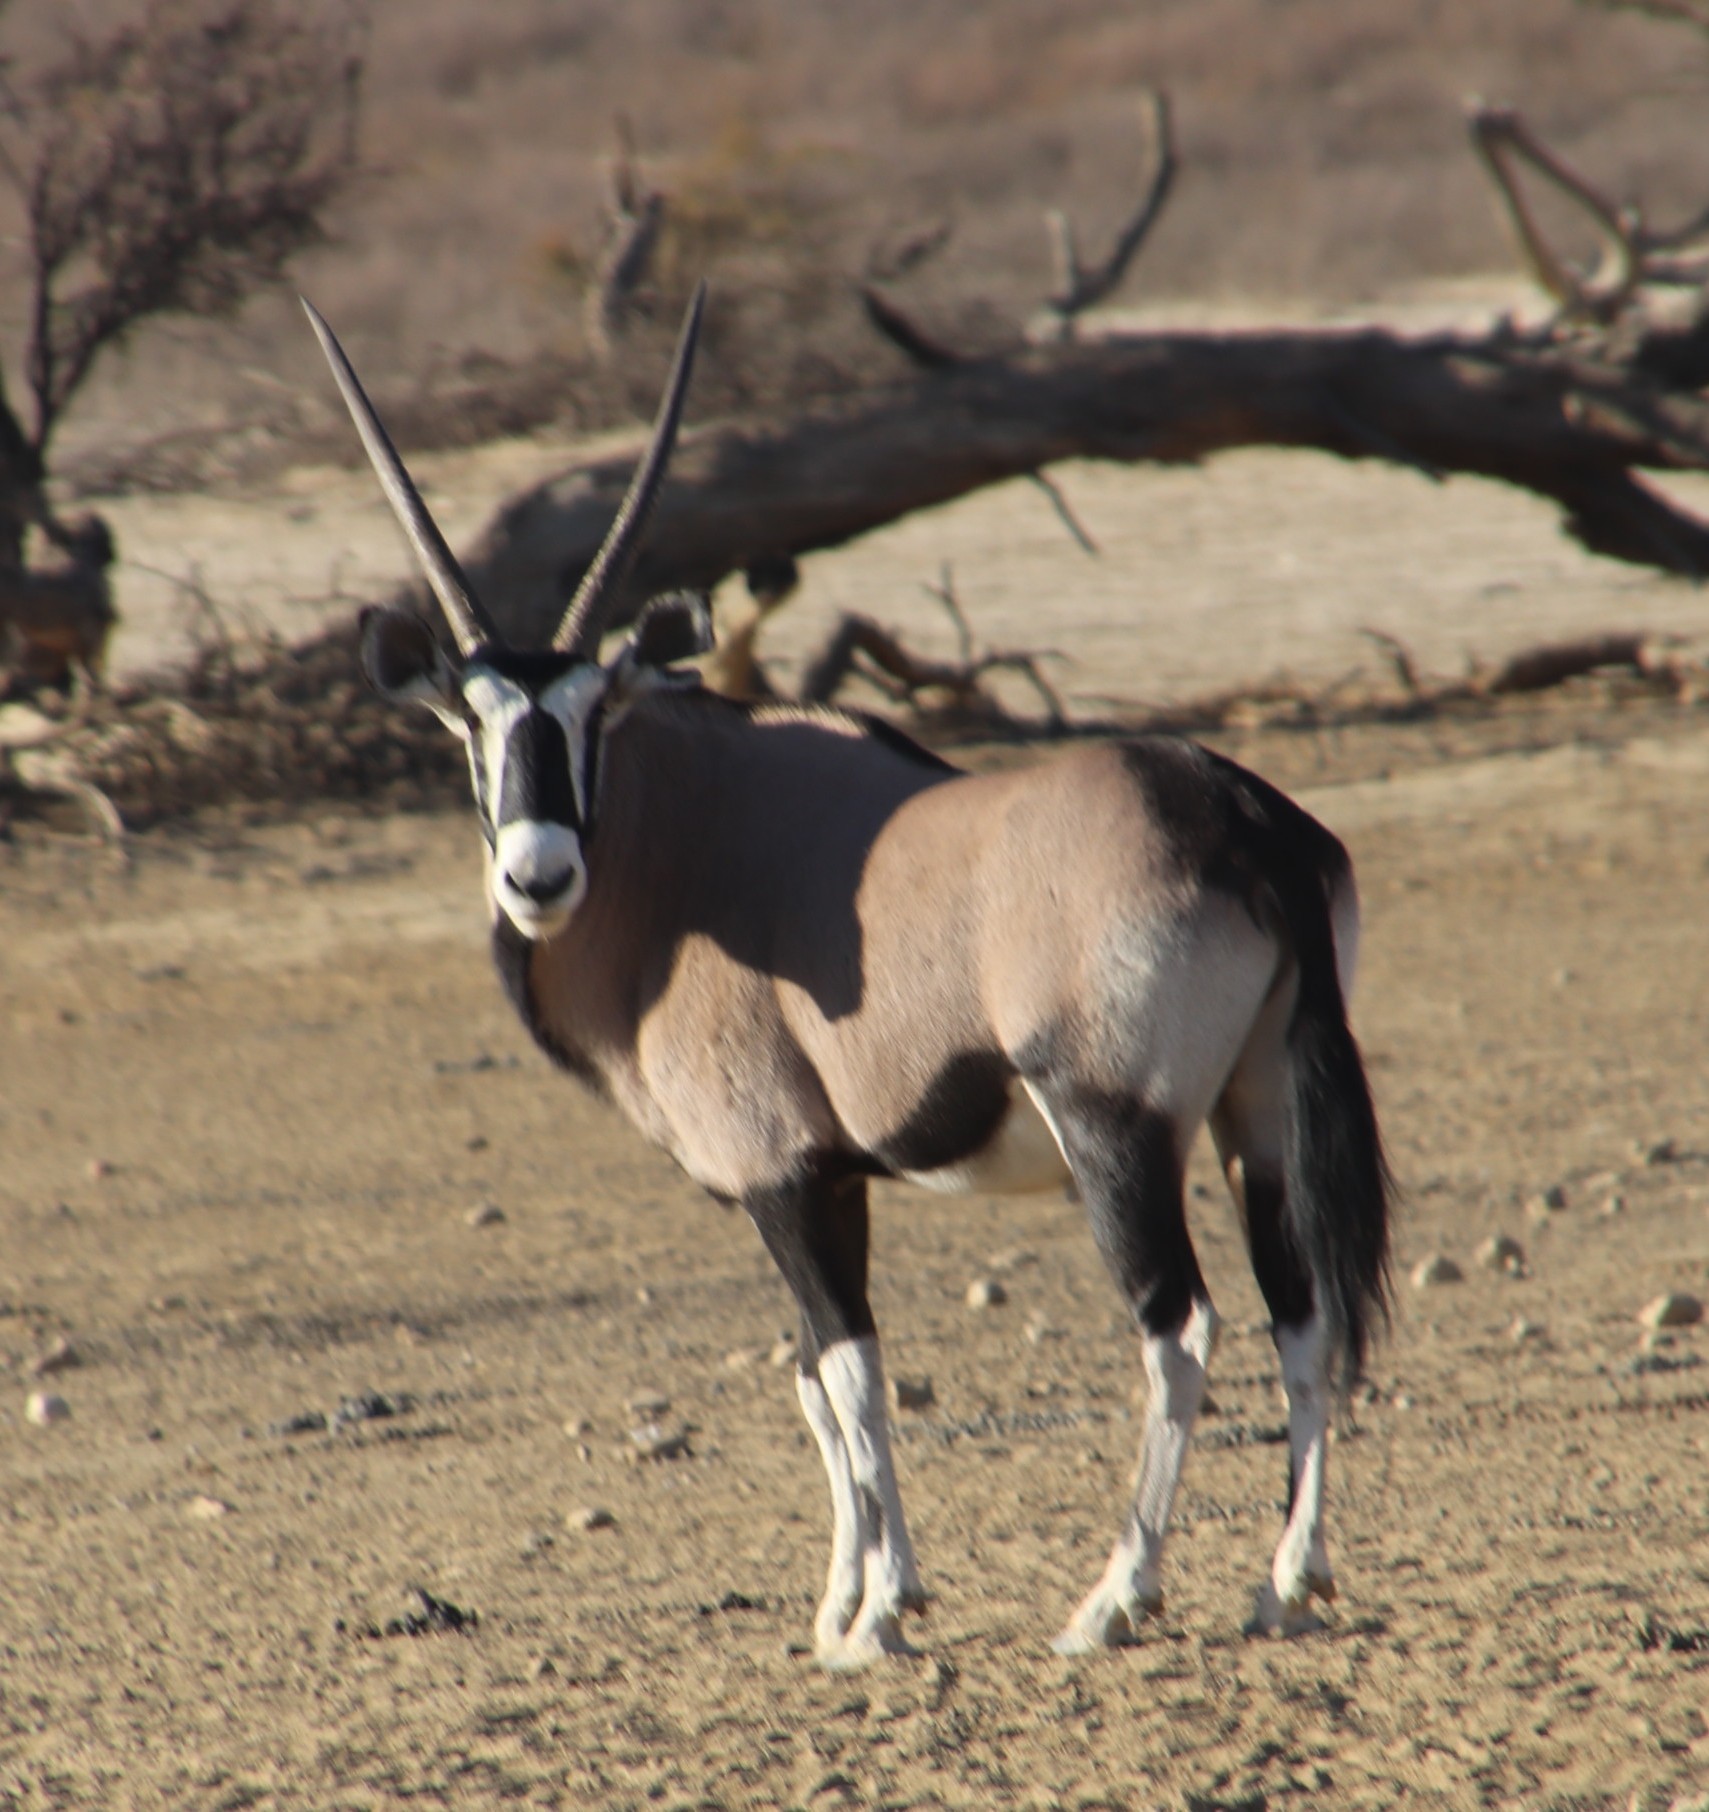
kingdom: Animalia
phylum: Chordata
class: Mammalia
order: Artiodactyla
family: Bovidae
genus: Oryx
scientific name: Oryx gazella
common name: Gemsbok
